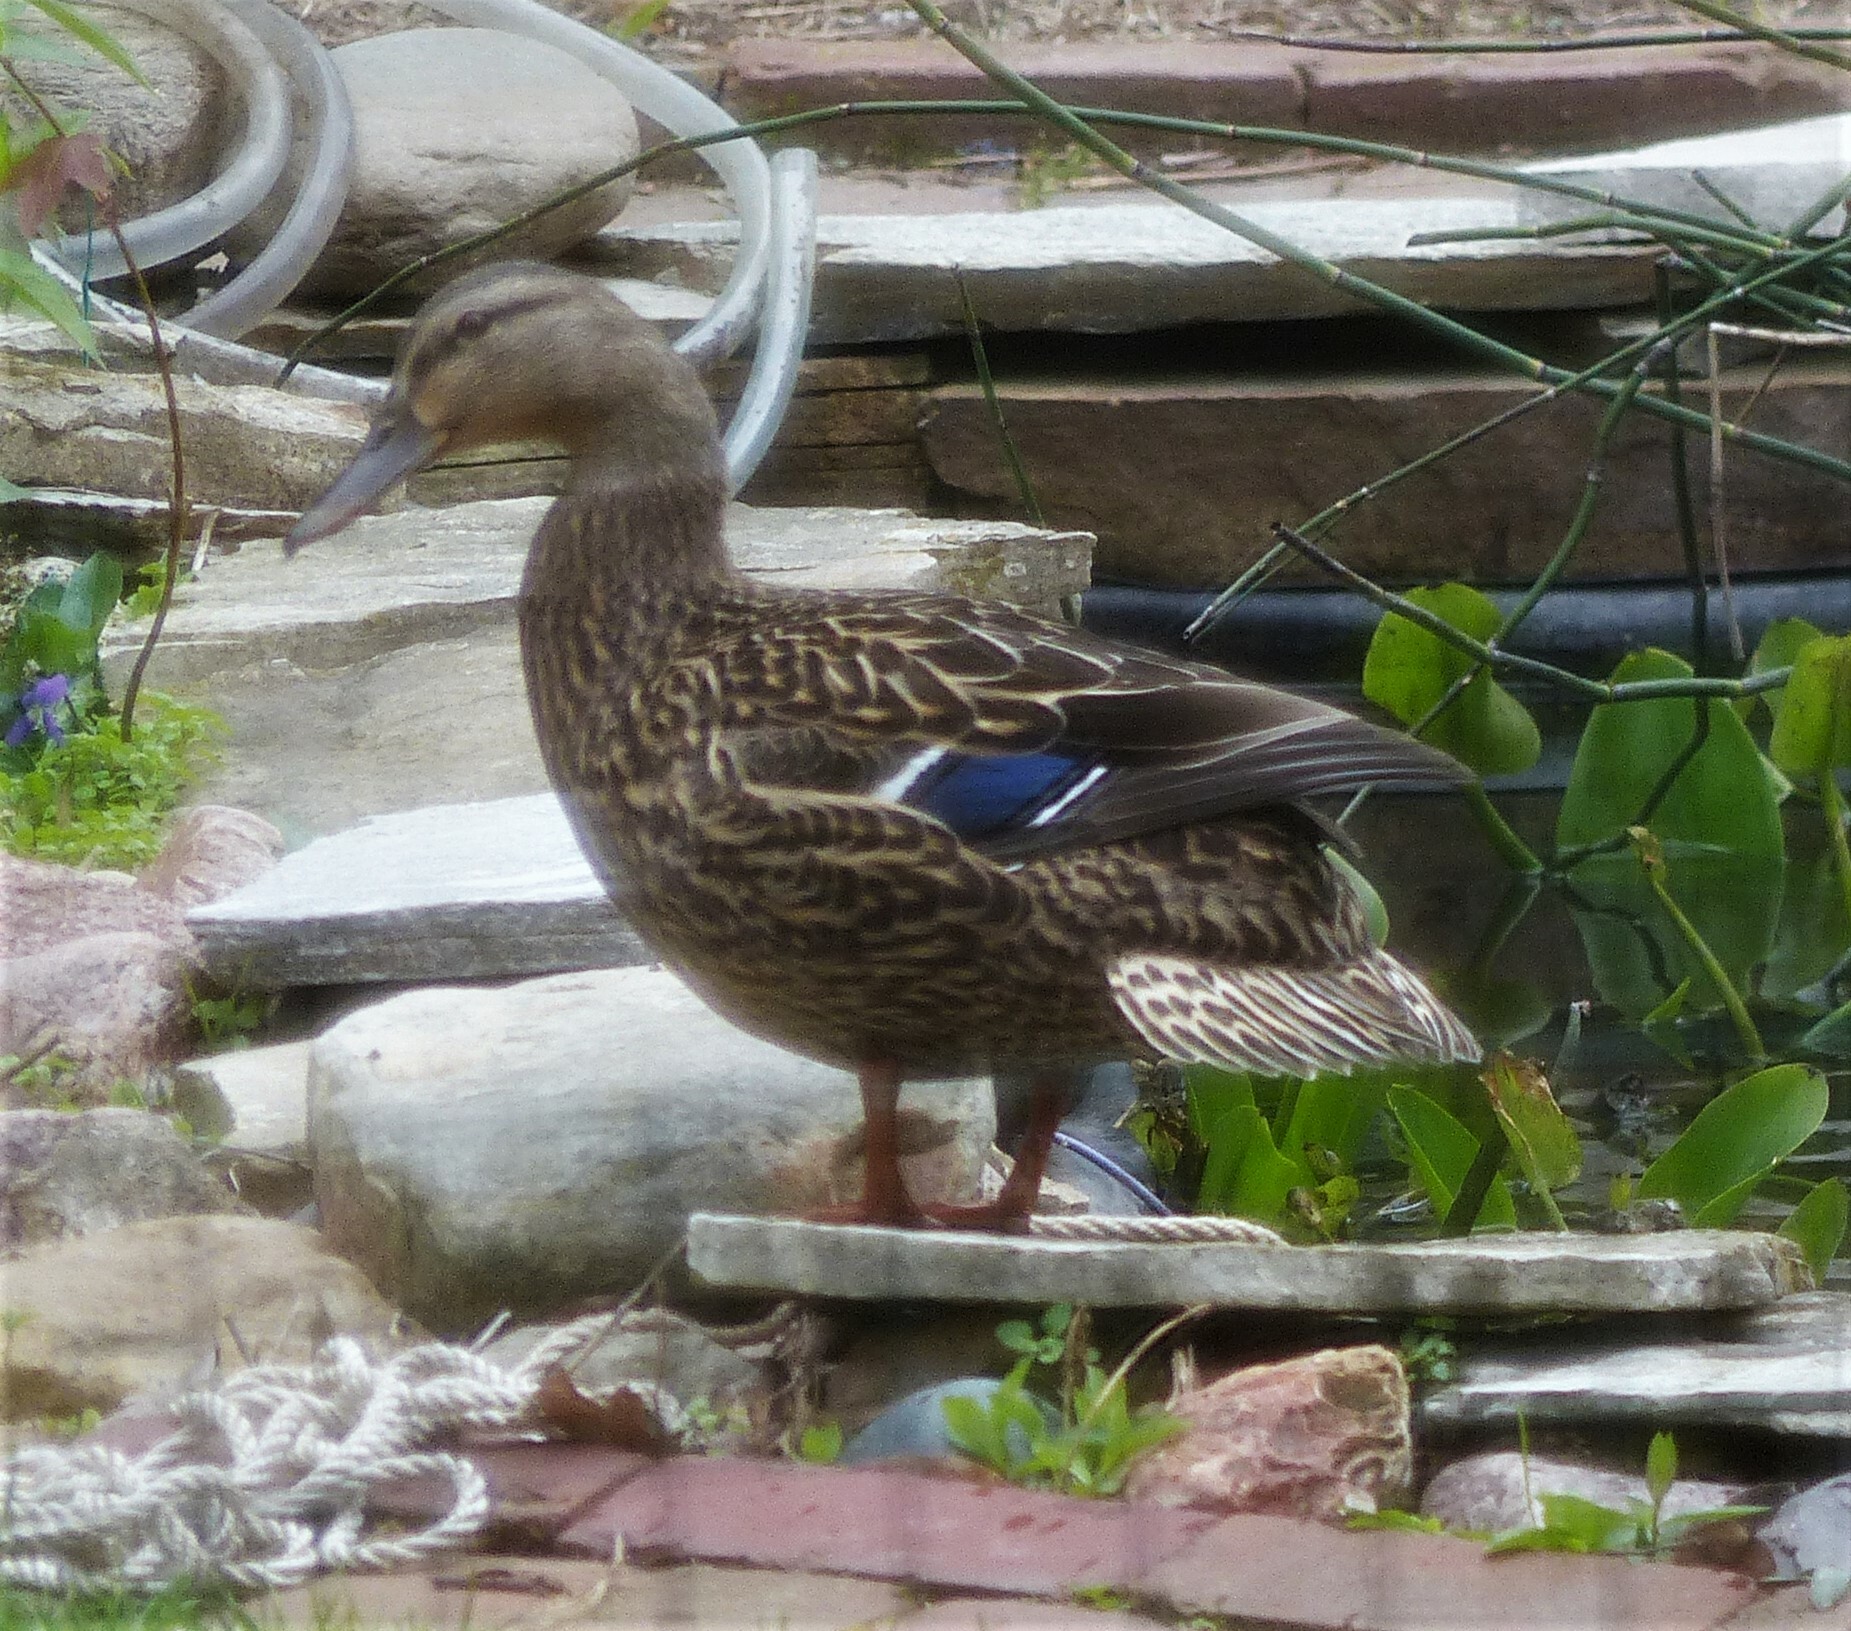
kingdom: Animalia
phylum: Chordata
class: Aves
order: Anseriformes
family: Anatidae
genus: Anas
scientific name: Anas platyrhynchos
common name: Mallard
